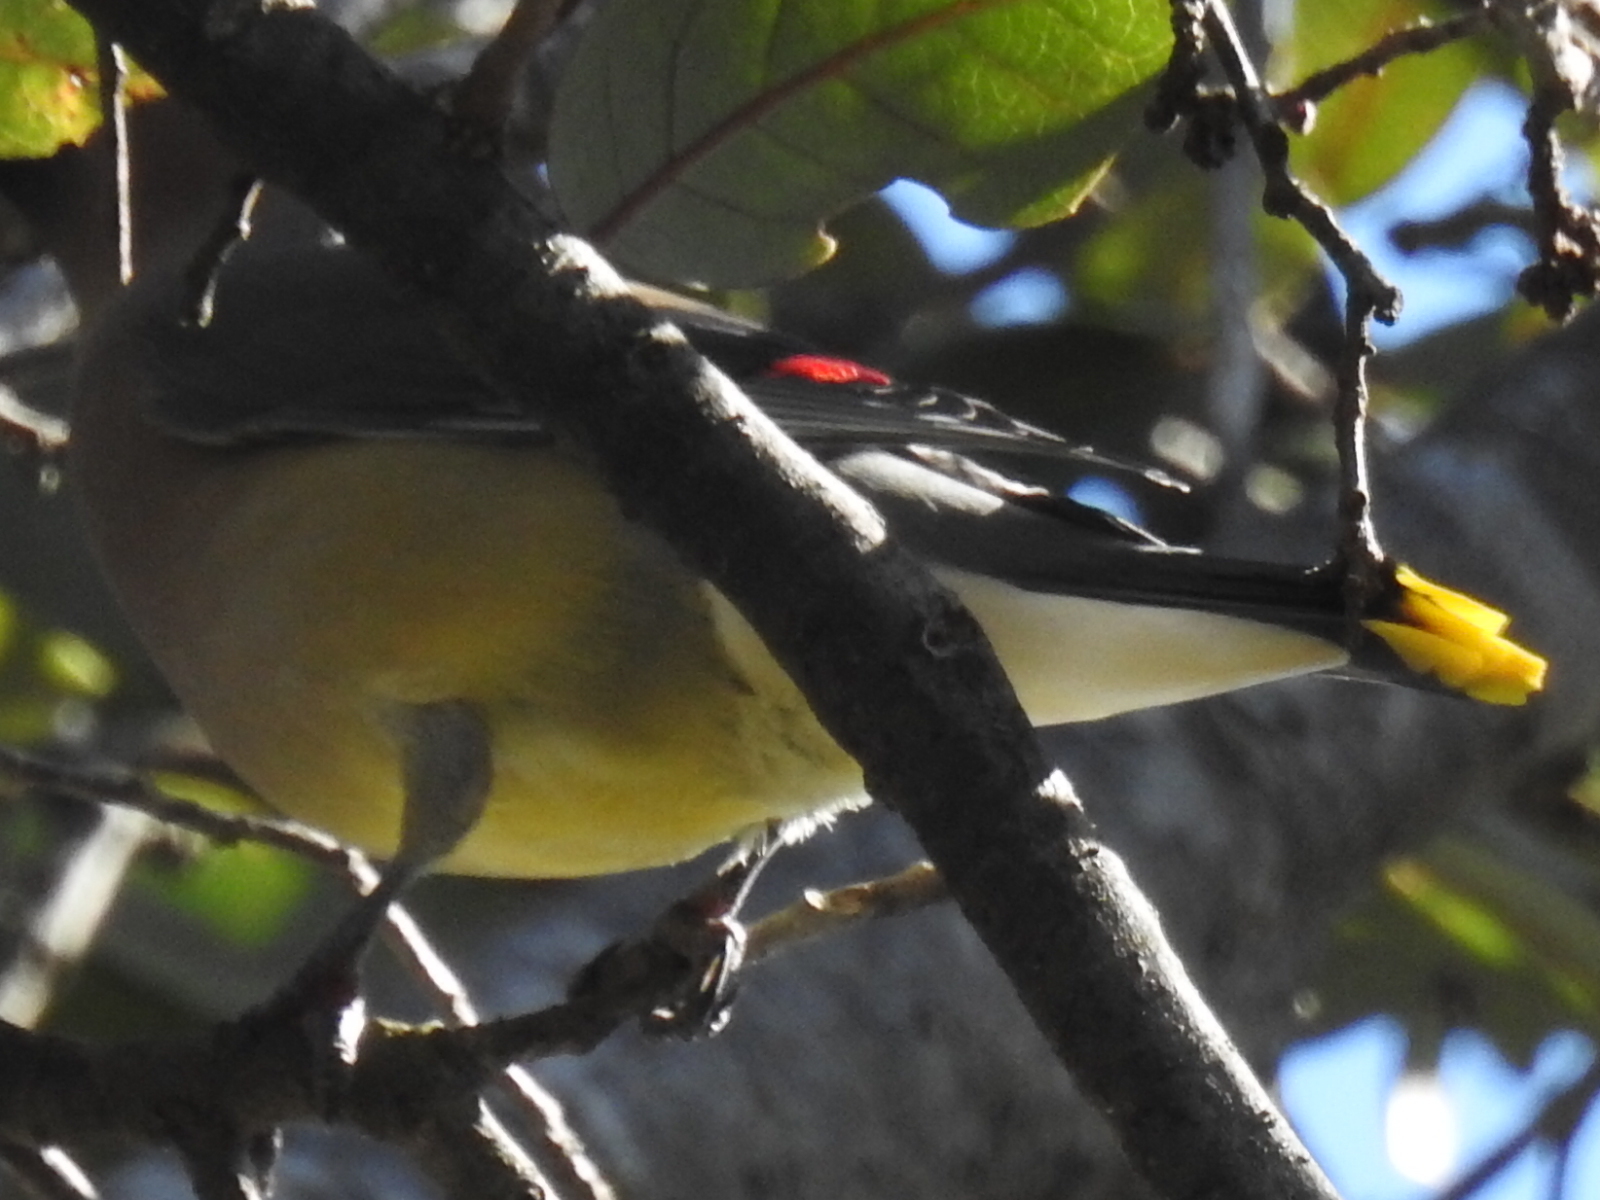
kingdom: Animalia
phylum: Chordata
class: Aves
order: Passeriformes
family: Bombycillidae
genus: Bombycilla
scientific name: Bombycilla cedrorum
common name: Cedar waxwing
